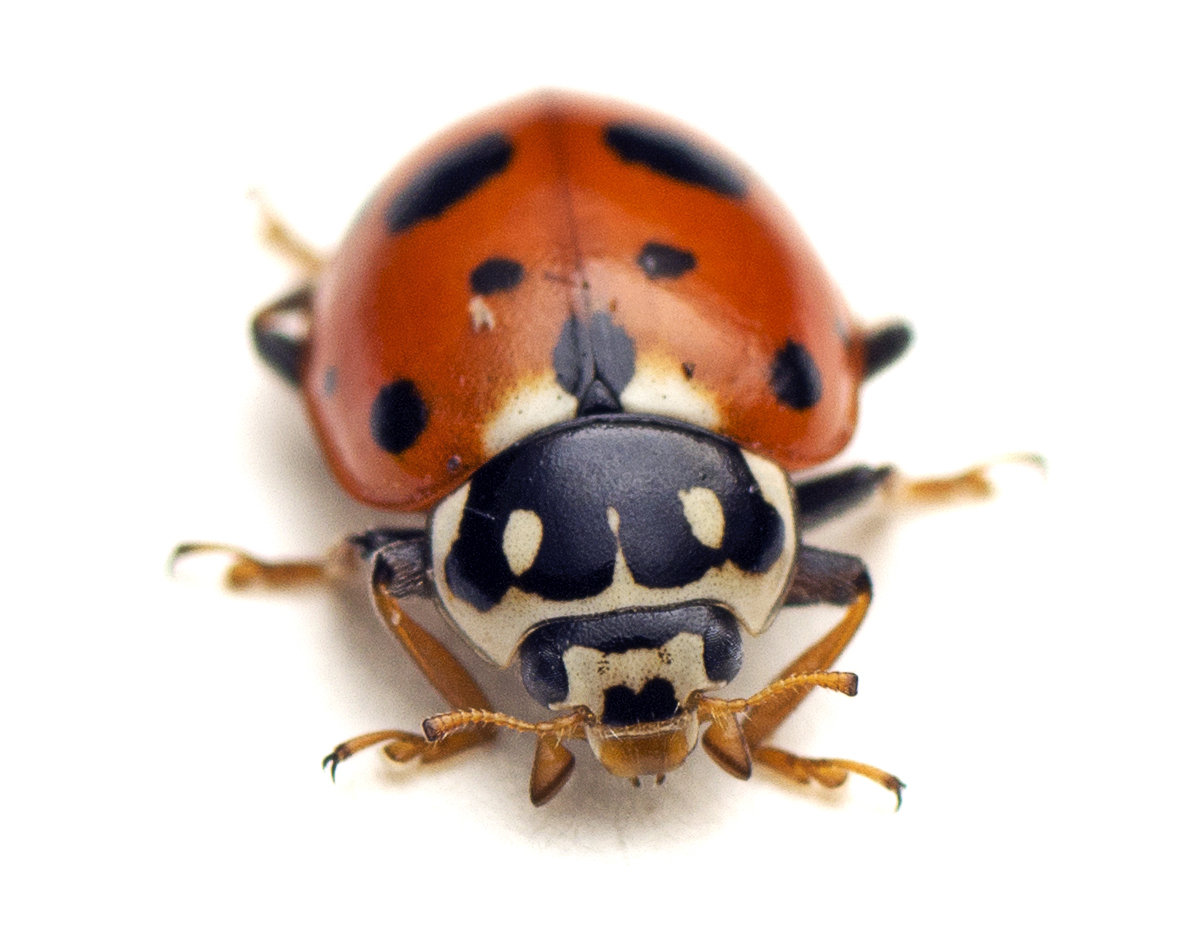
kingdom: Animalia
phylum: Arthropoda
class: Insecta
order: Coleoptera
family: Coccinellidae
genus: Hippodamia
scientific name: Hippodamia variegata
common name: Ladybird beetle
